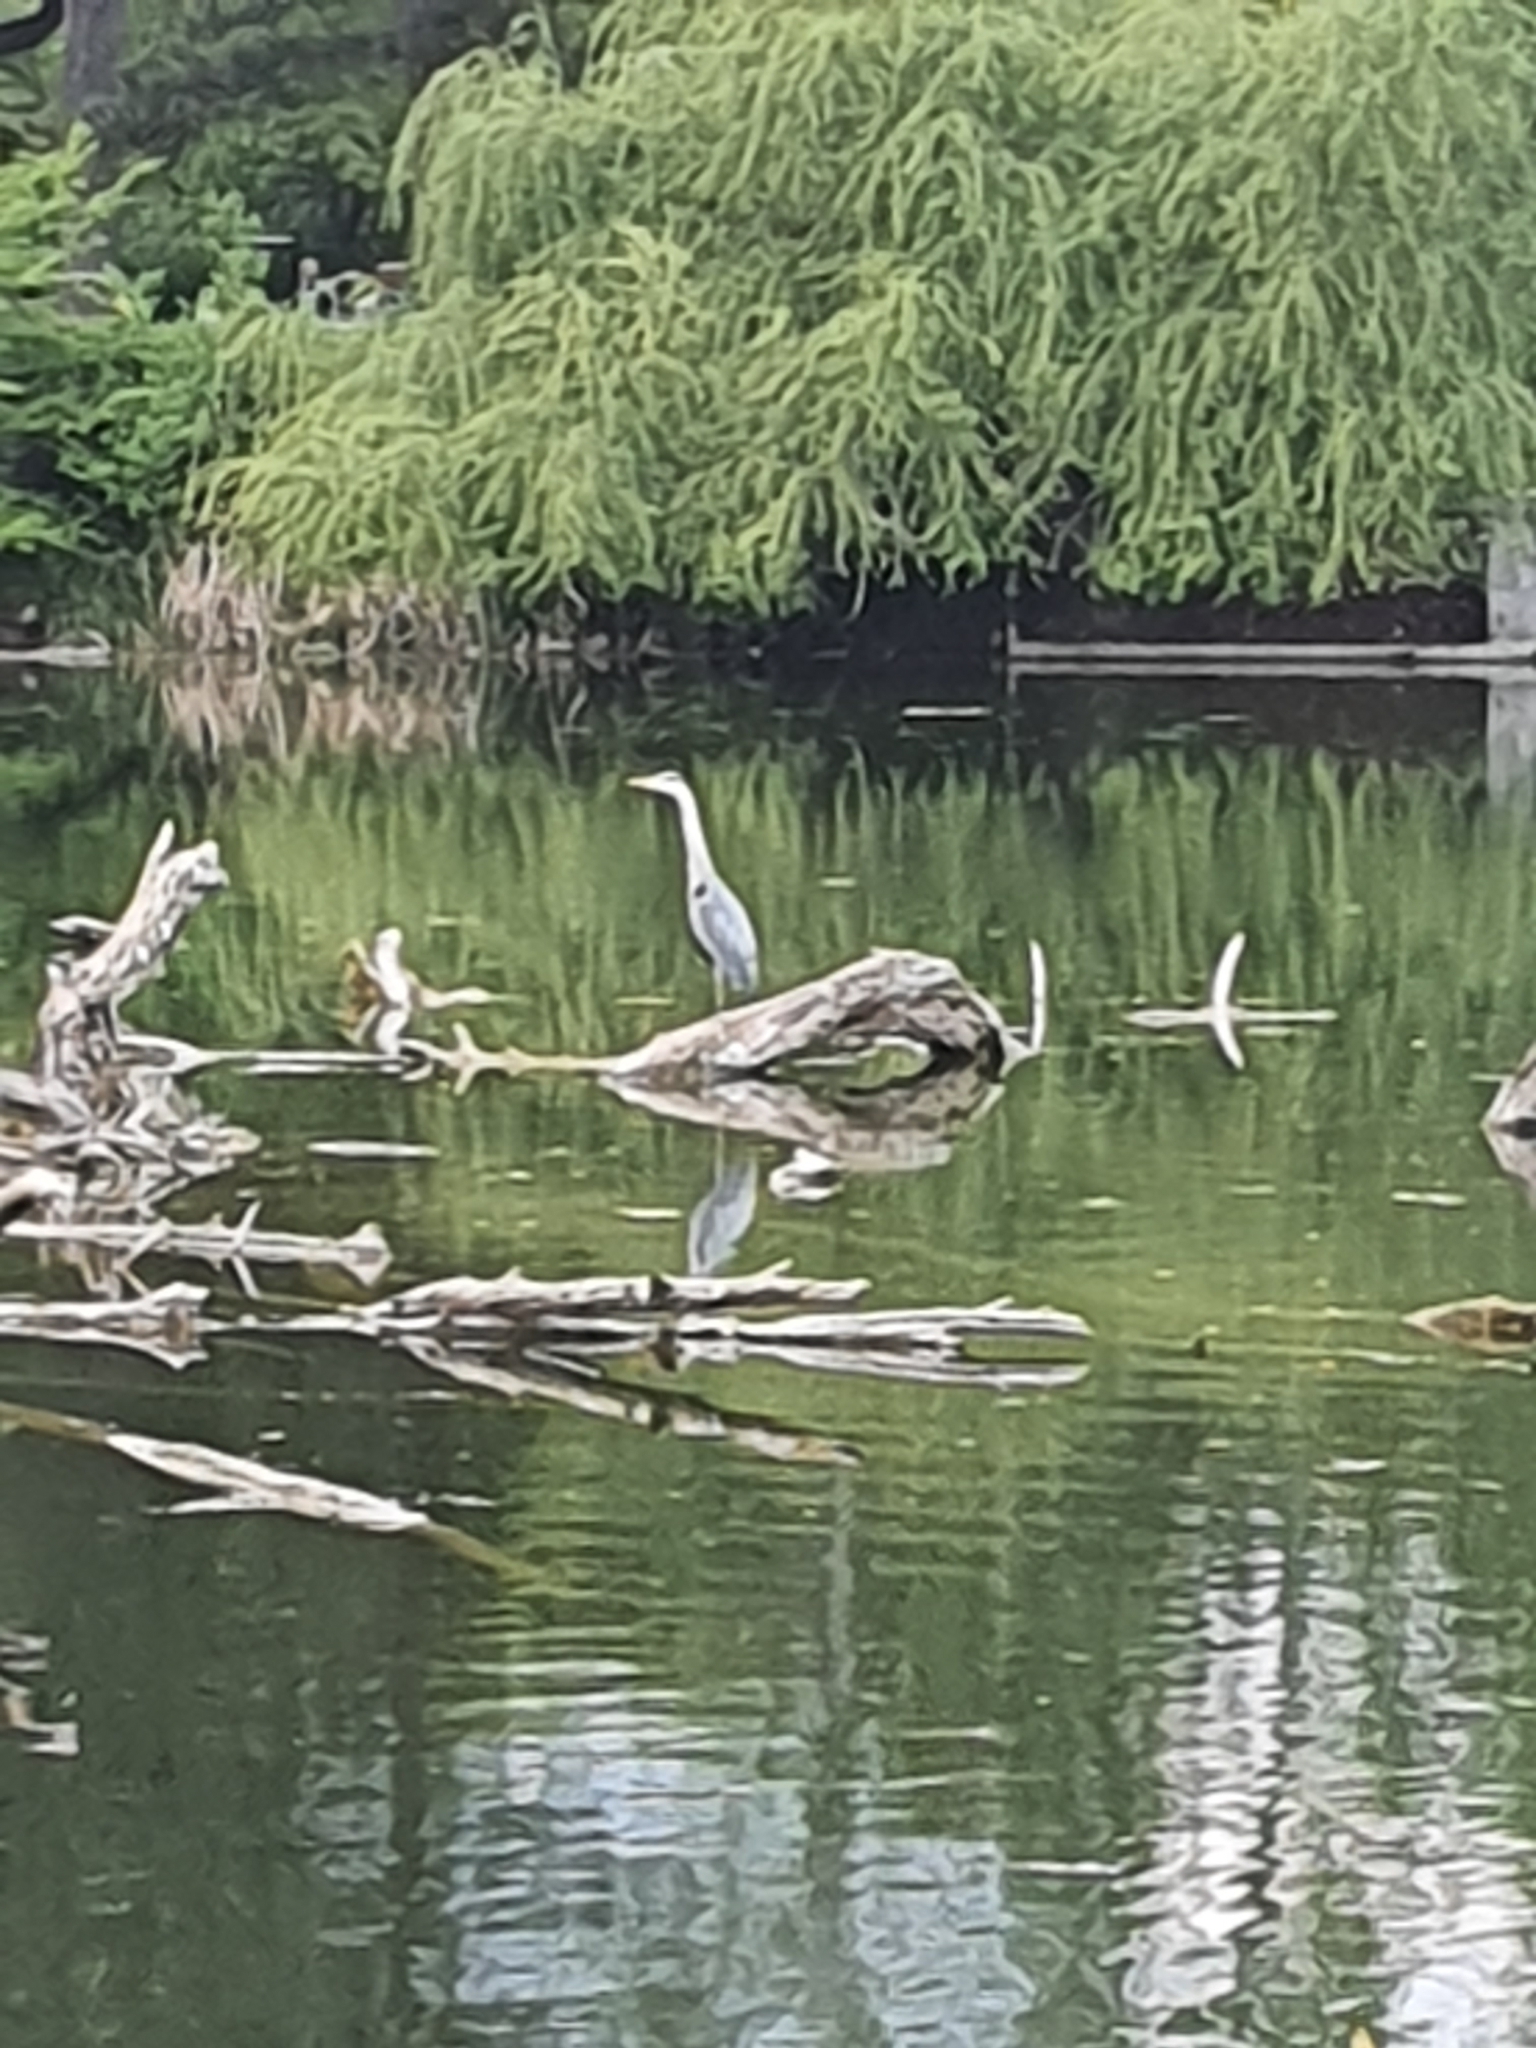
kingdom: Animalia
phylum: Chordata
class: Aves
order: Pelecaniformes
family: Ardeidae
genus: Ardea
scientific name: Ardea cinerea
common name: Grey heron
